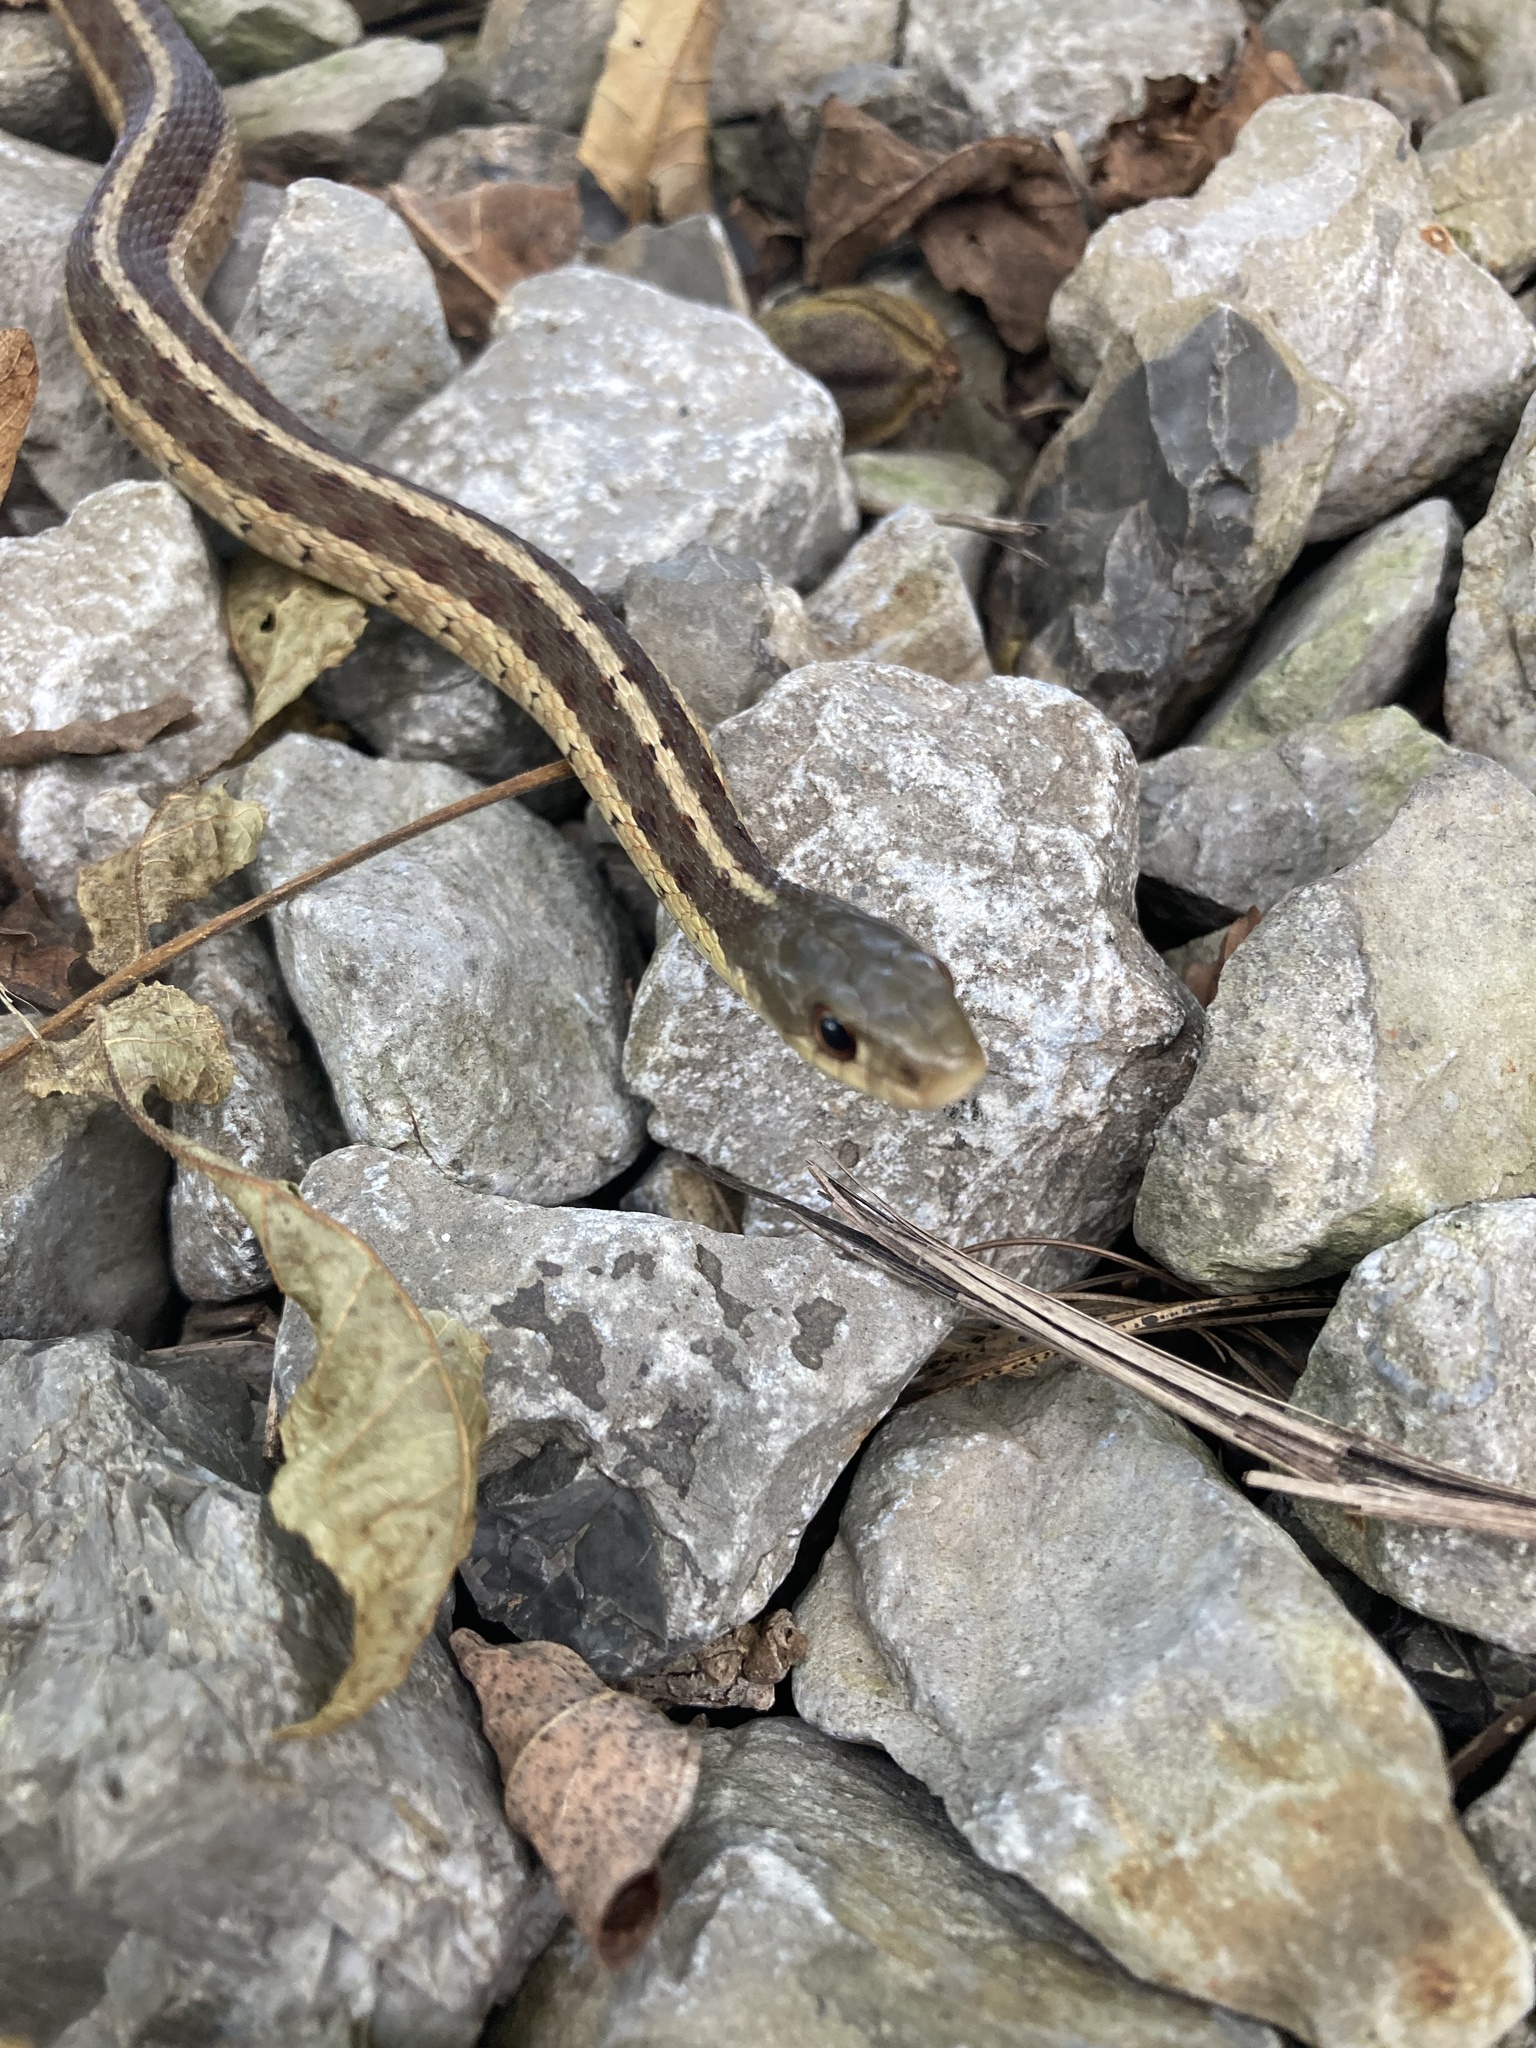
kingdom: Animalia
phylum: Chordata
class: Squamata
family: Colubridae
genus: Thamnophis
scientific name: Thamnophis sirtalis
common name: Common garter snake
